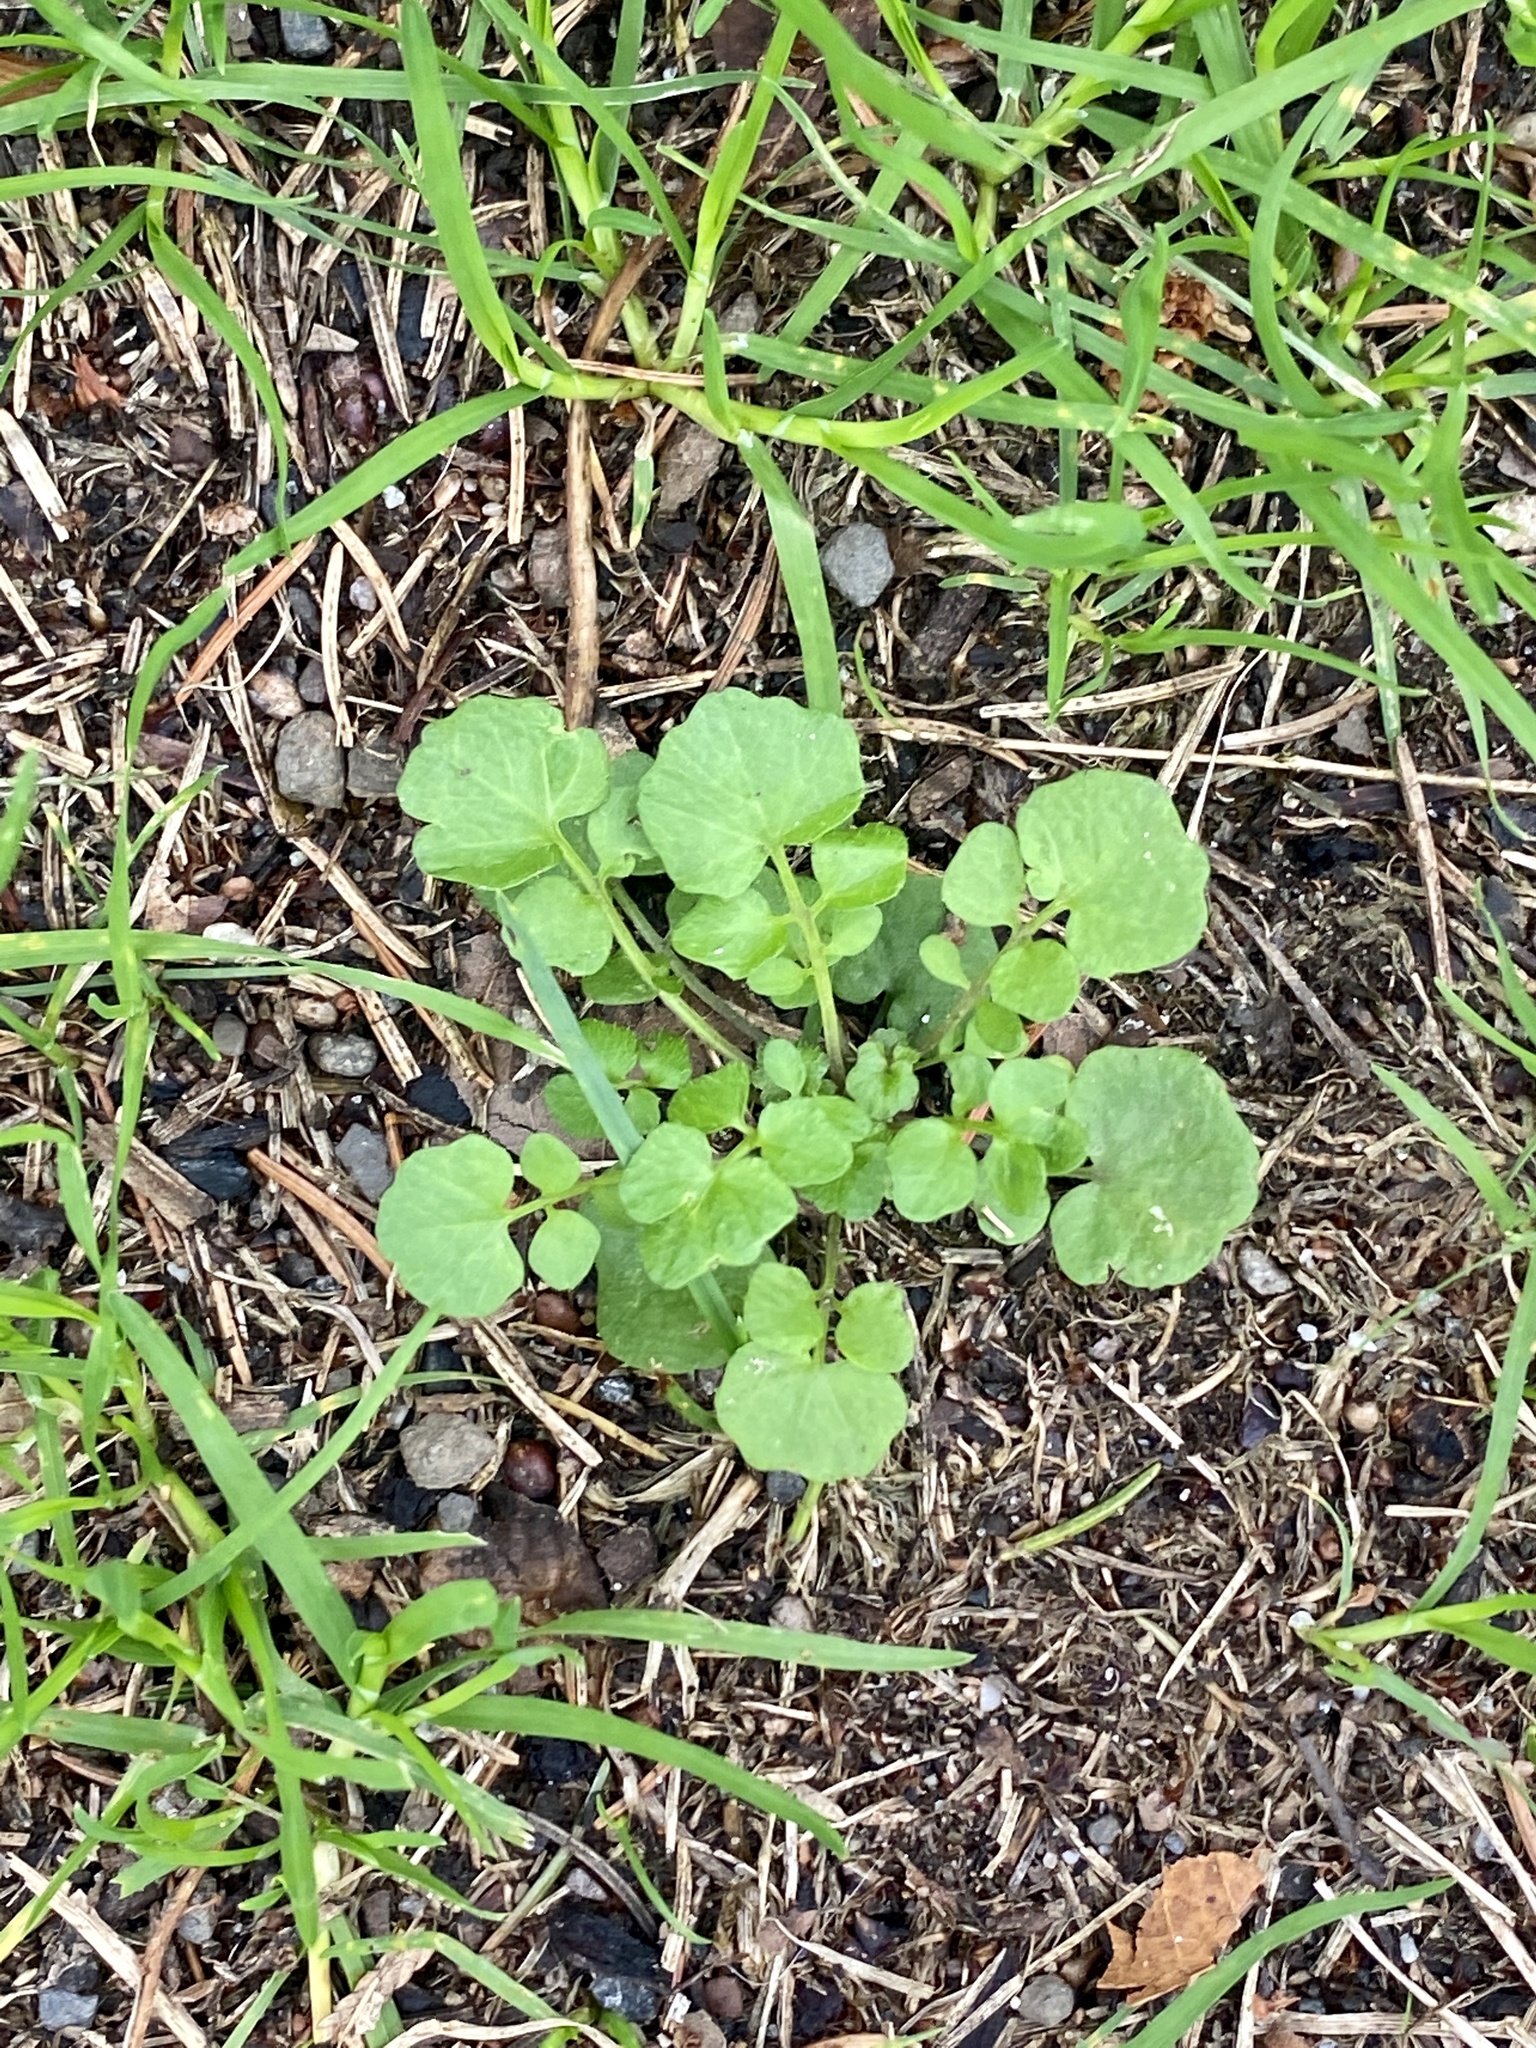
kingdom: Plantae
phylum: Tracheophyta
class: Magnoliopsida
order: Brassicales
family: Brassicaceae
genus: Cardamine
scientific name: Cardamine hirsuta
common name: Hairy bittercress
